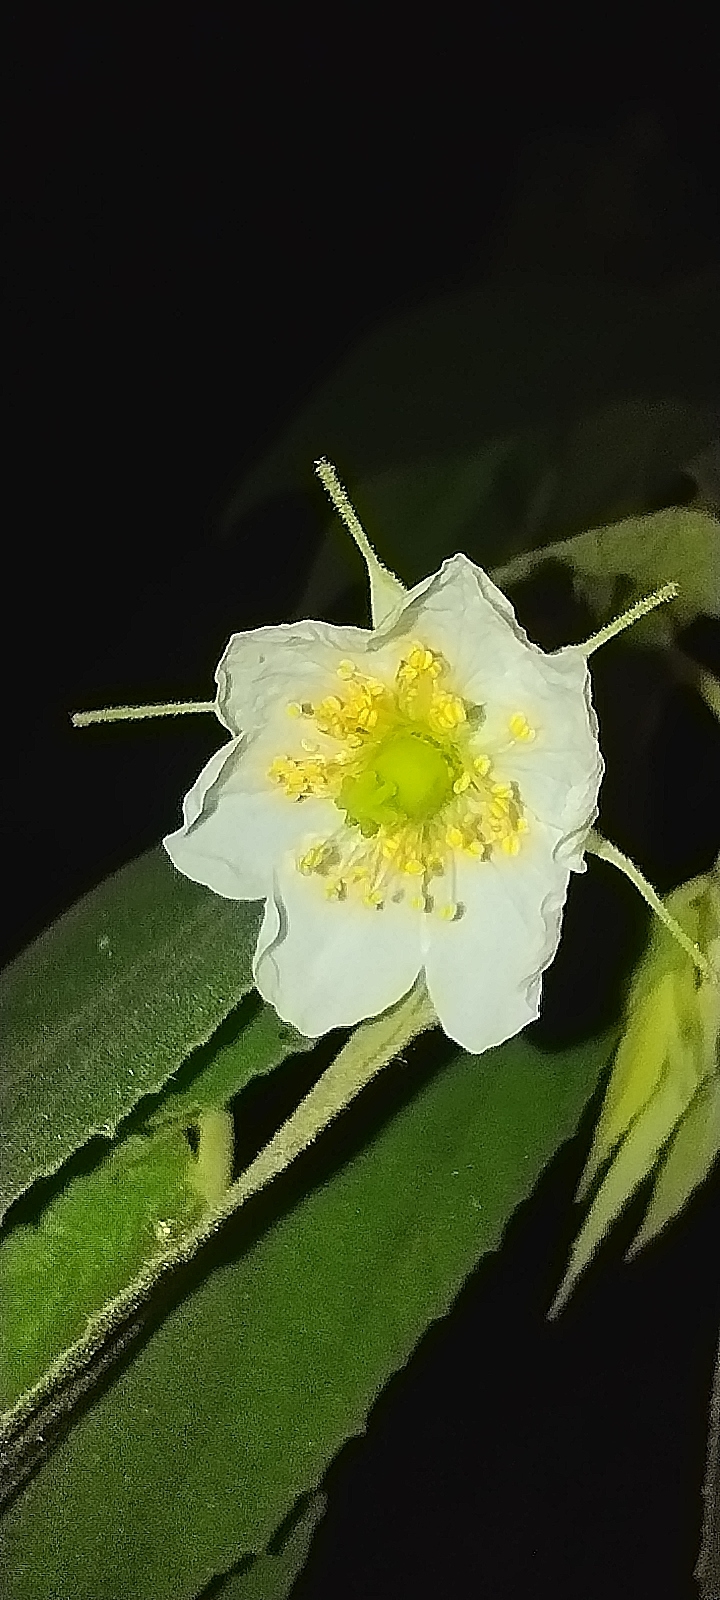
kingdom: Plantae
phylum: Tracheophyta
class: Magnoliopsida
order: Malvales
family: Muntingiaceae
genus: Muntingia
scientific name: Muntingia calabura
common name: Strawberrytree
